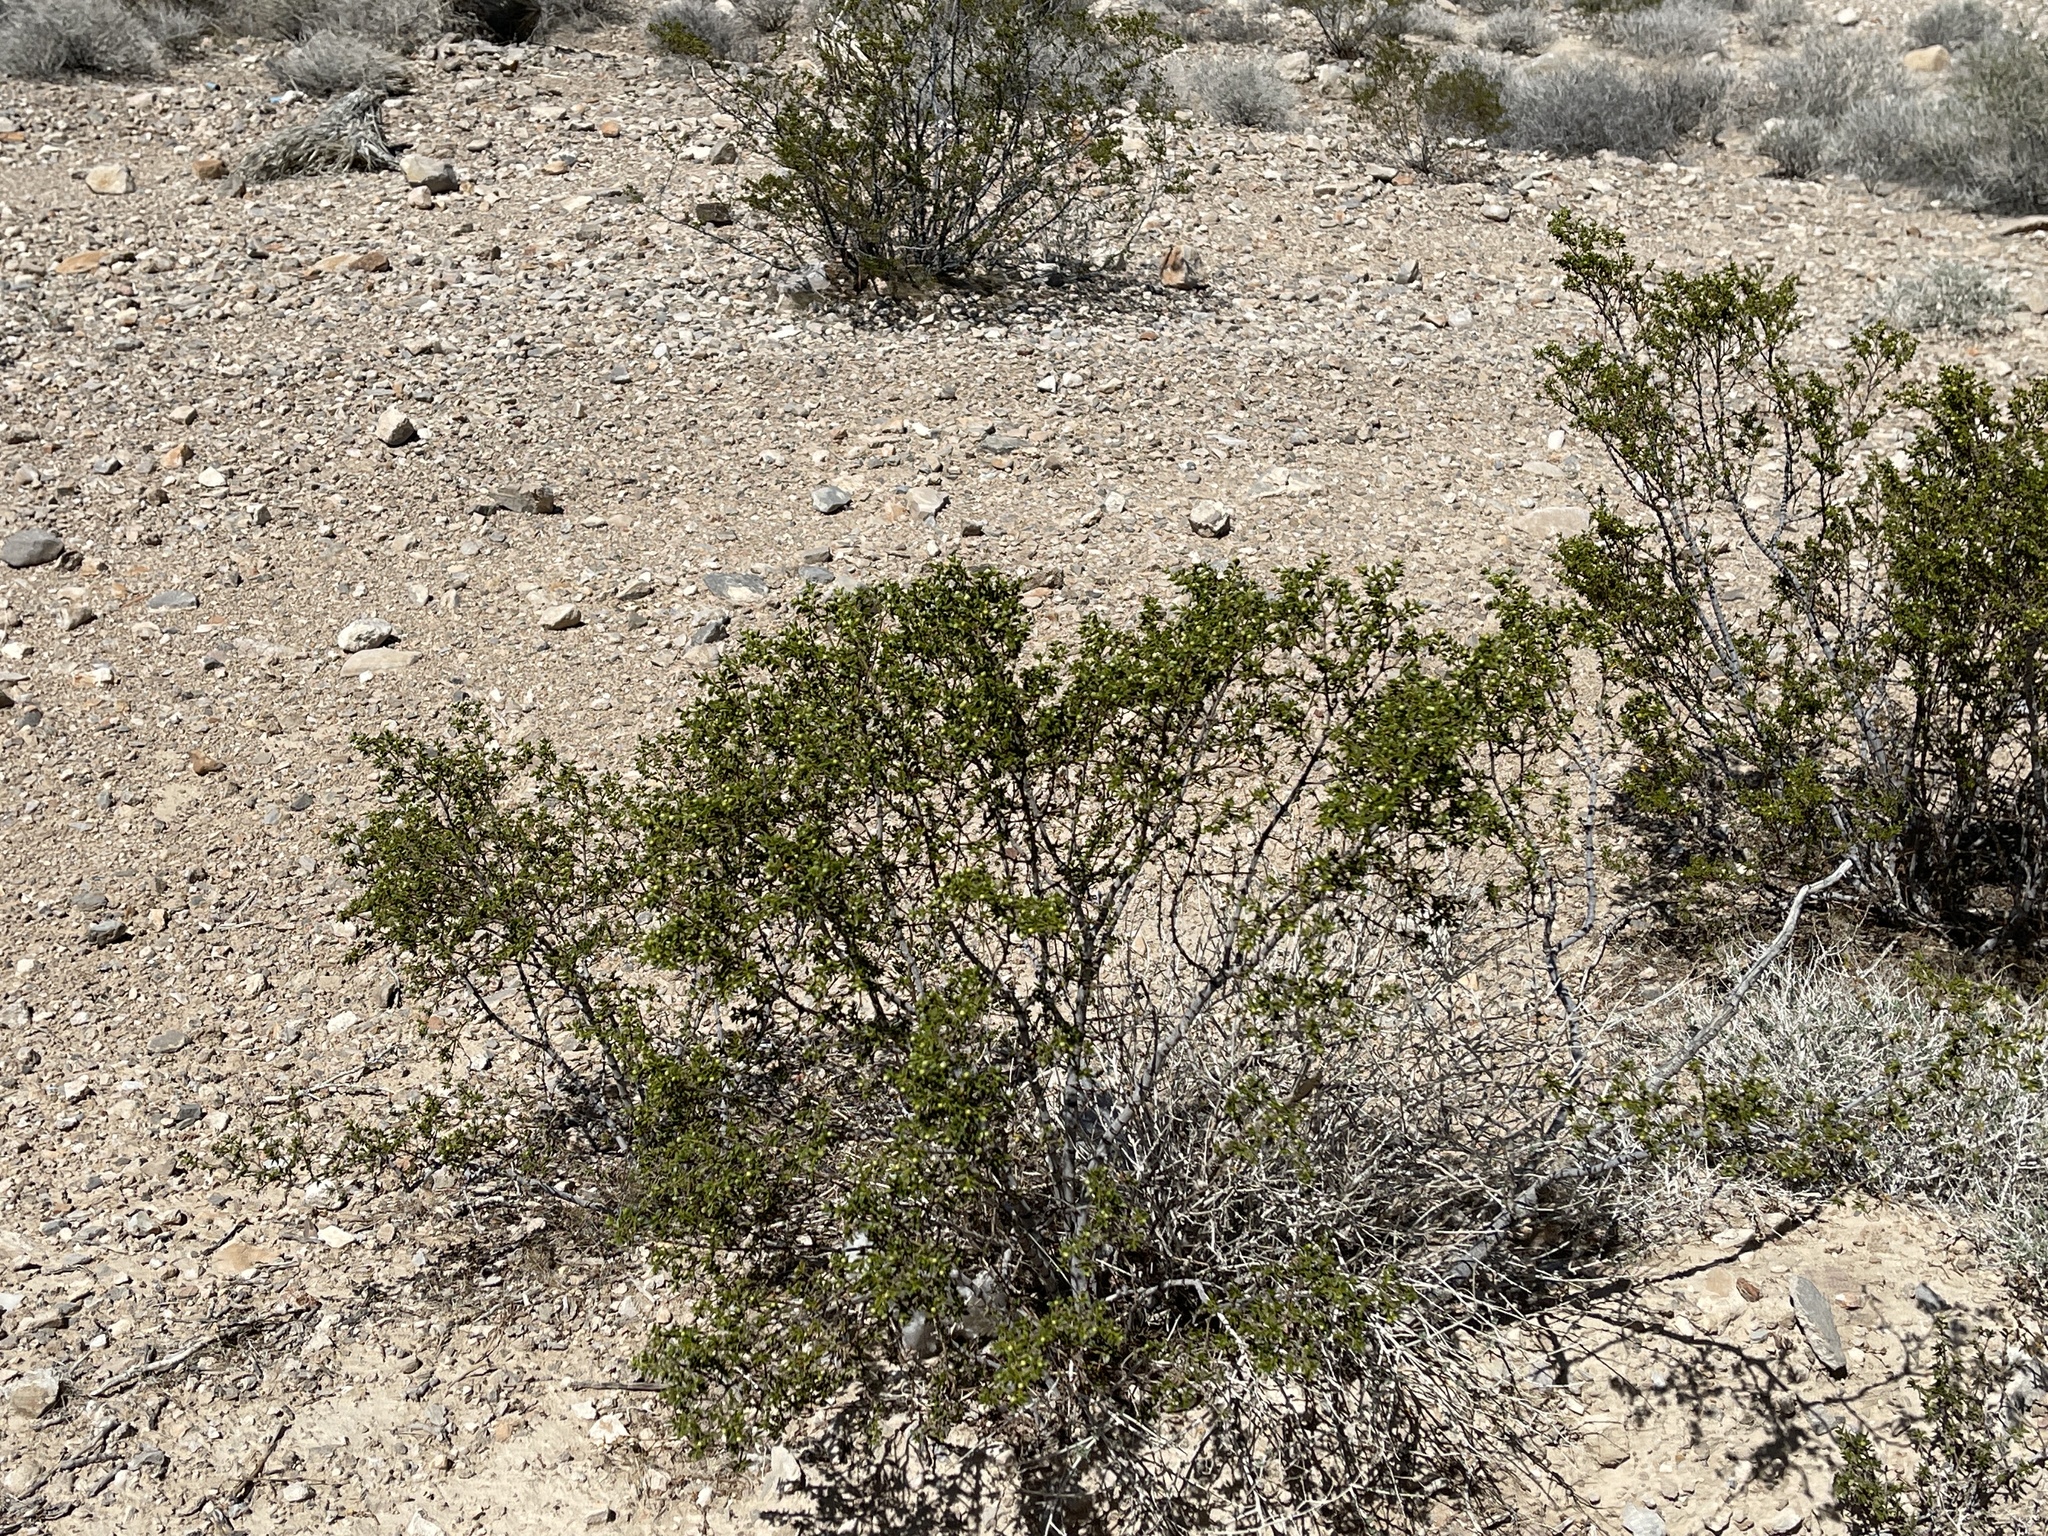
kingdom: Plantae
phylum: Tracheophyta
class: Magnoliopsida
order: Zygophyllales
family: Zygophyllaceae
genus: Larrea
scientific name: Larrea tridentata
